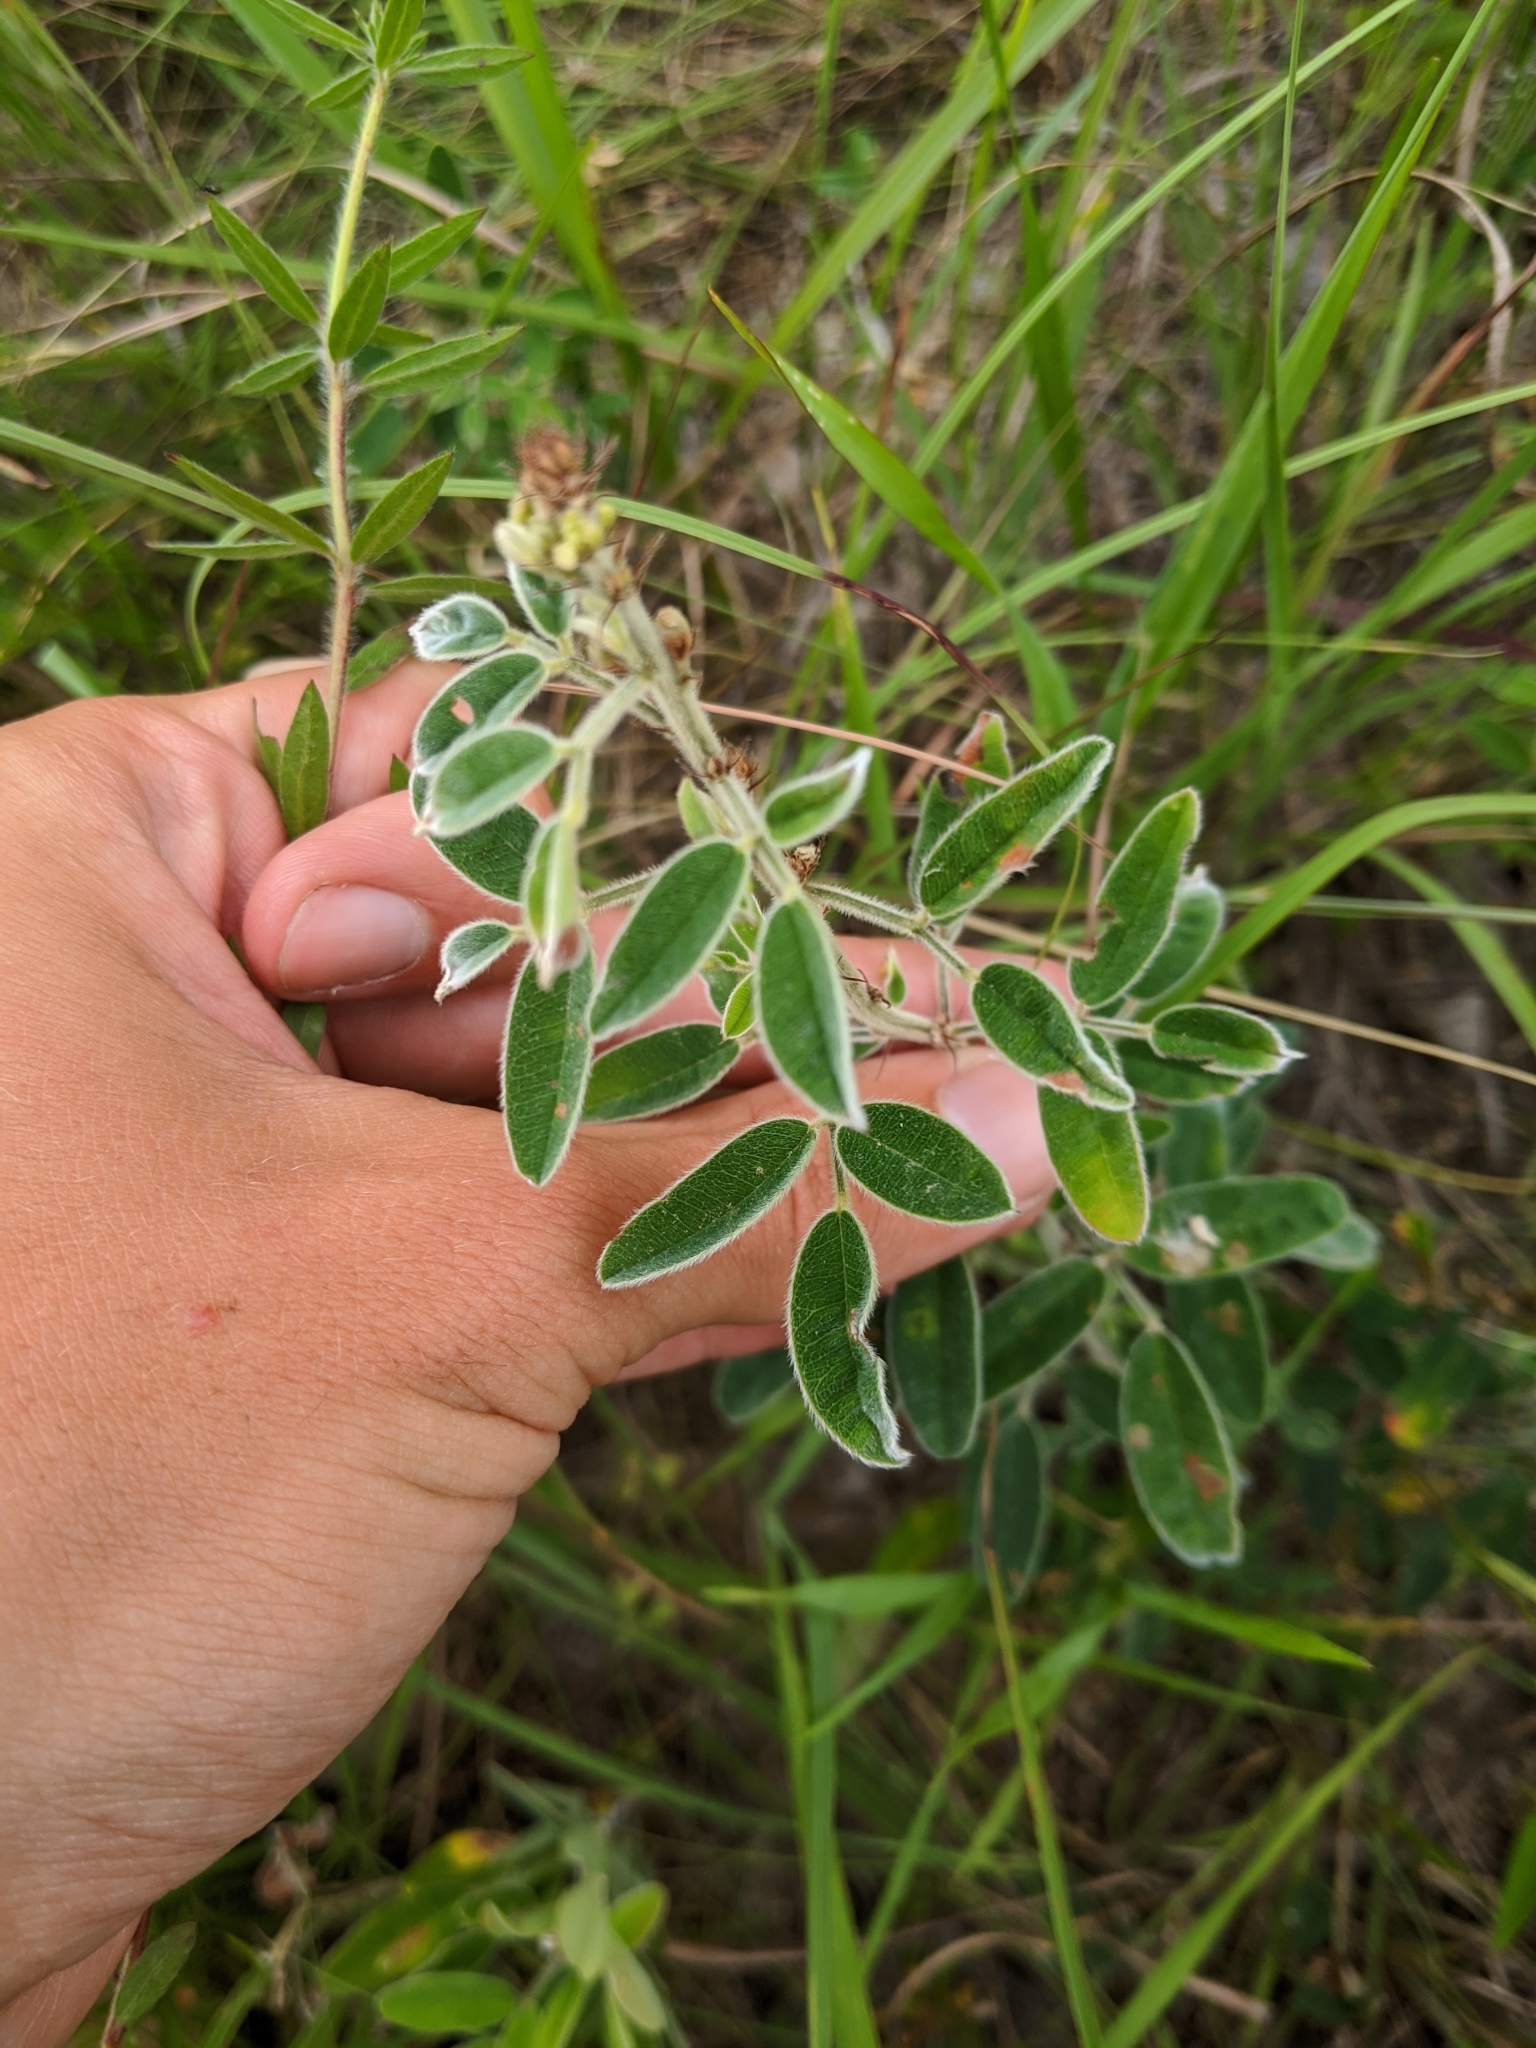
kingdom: Plantae
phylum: Tracheophyta
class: Magnoliopsida
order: Fabales
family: Fabaceae
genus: Lespedeza
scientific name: Lespedeza stuevei
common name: Tall bush-clover
